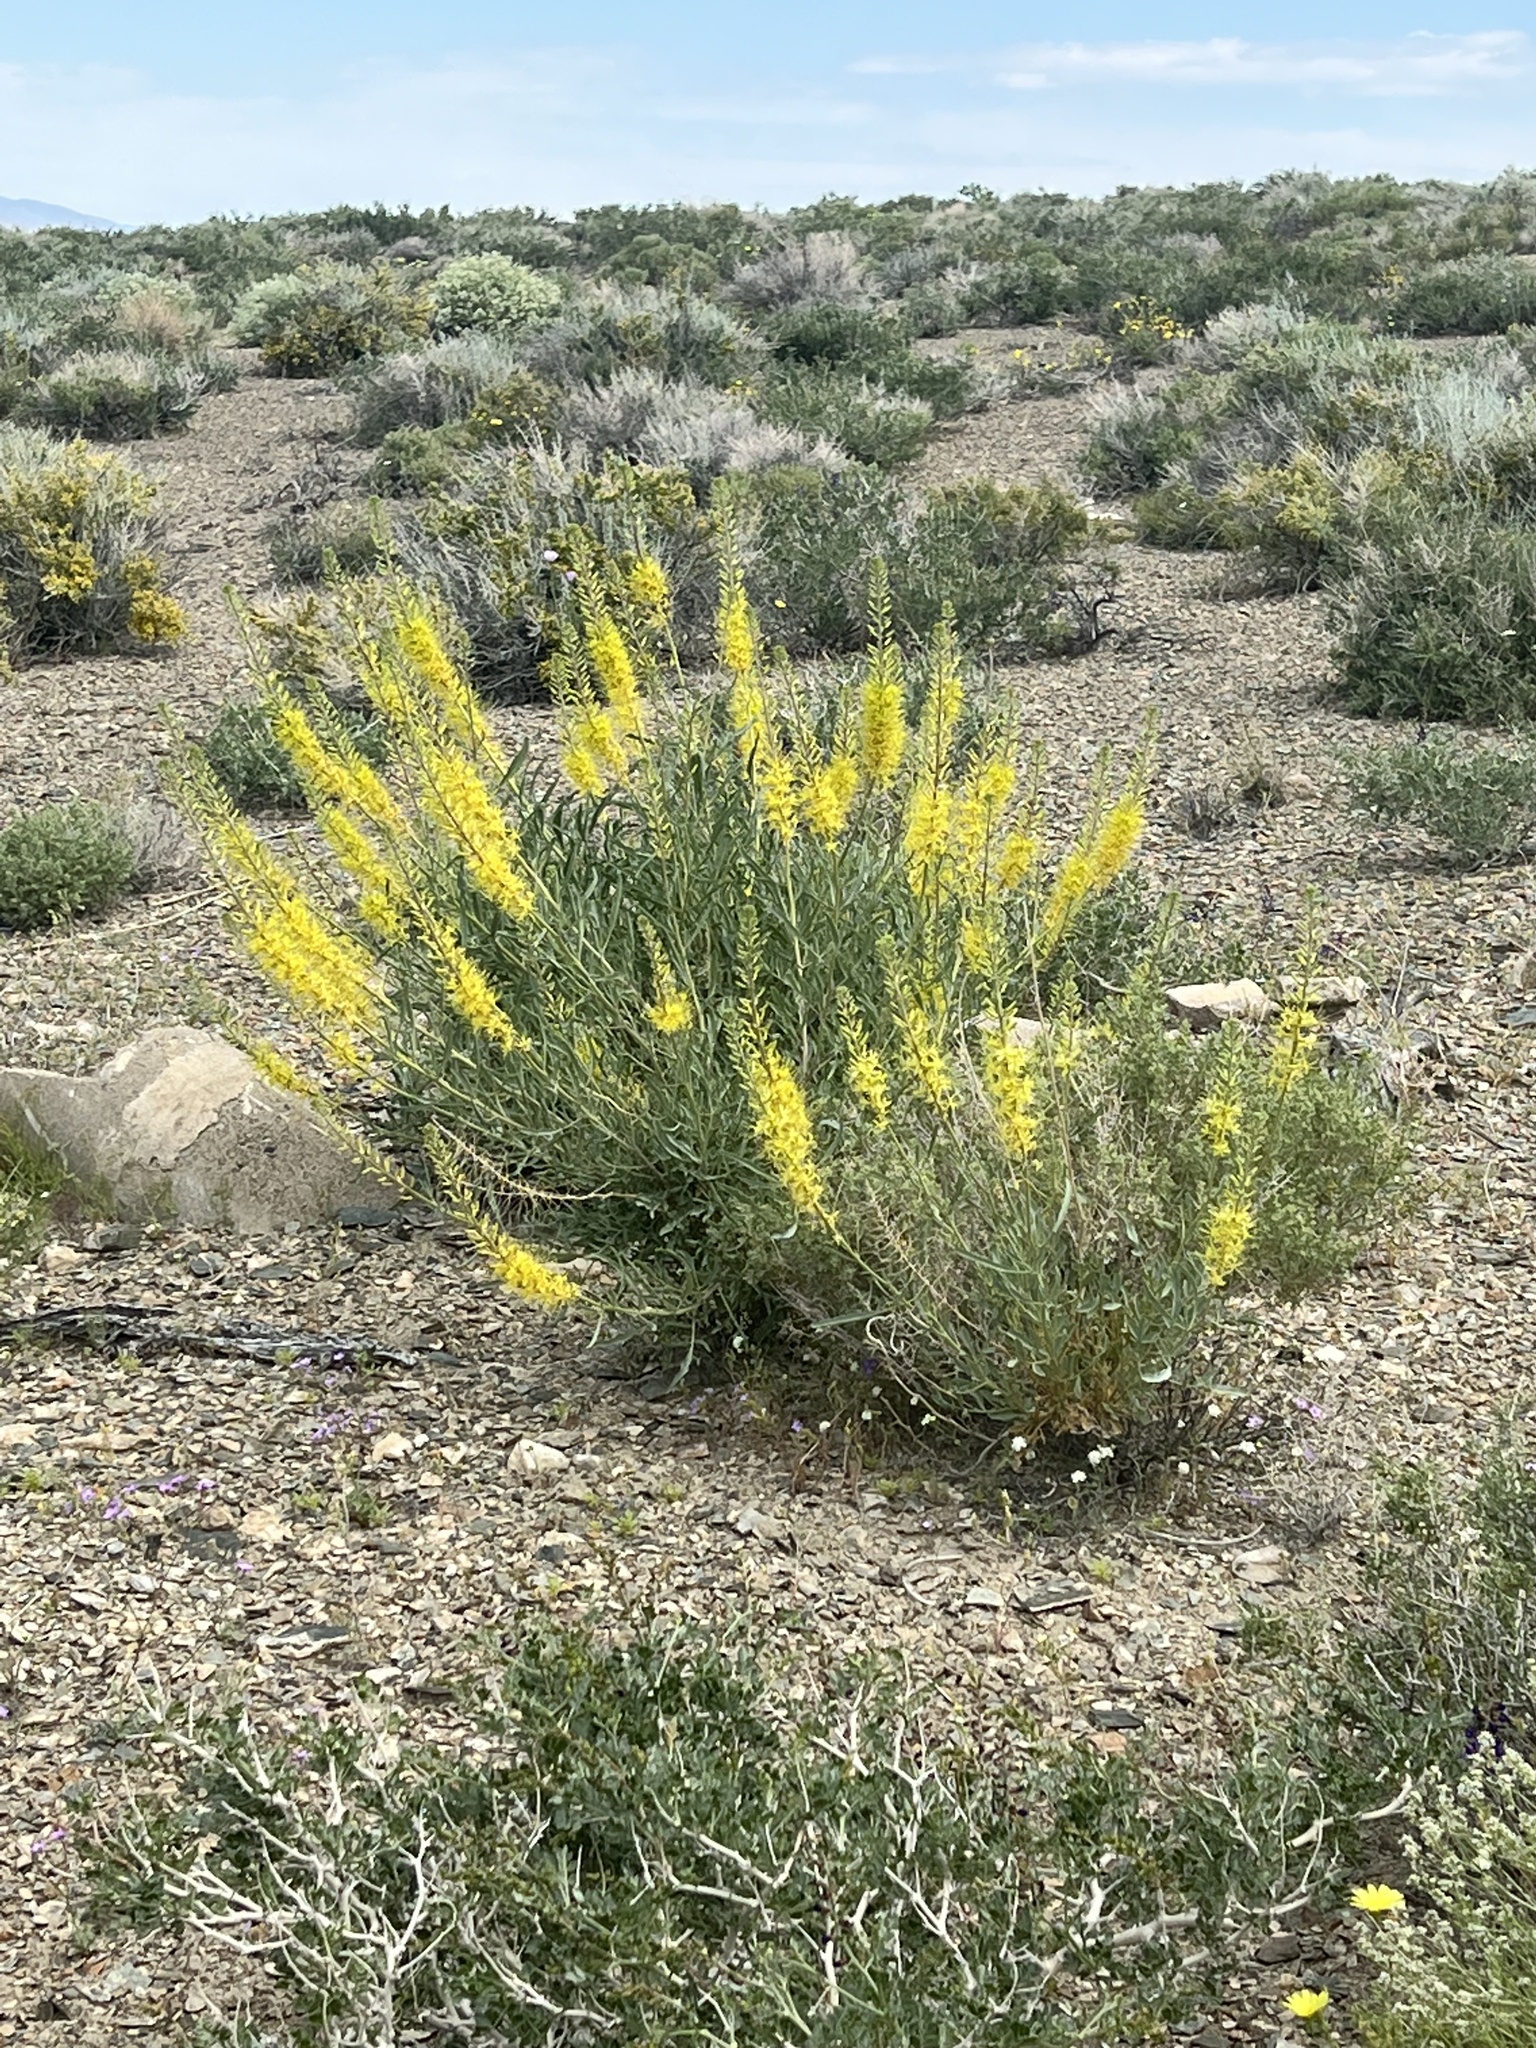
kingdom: Plantae
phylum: Tracheophyta
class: Magnoliopsida
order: Brassicales
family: Brassicaceae
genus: Stanleya
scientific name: Stanleya pinnata
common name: Prince's-plume
